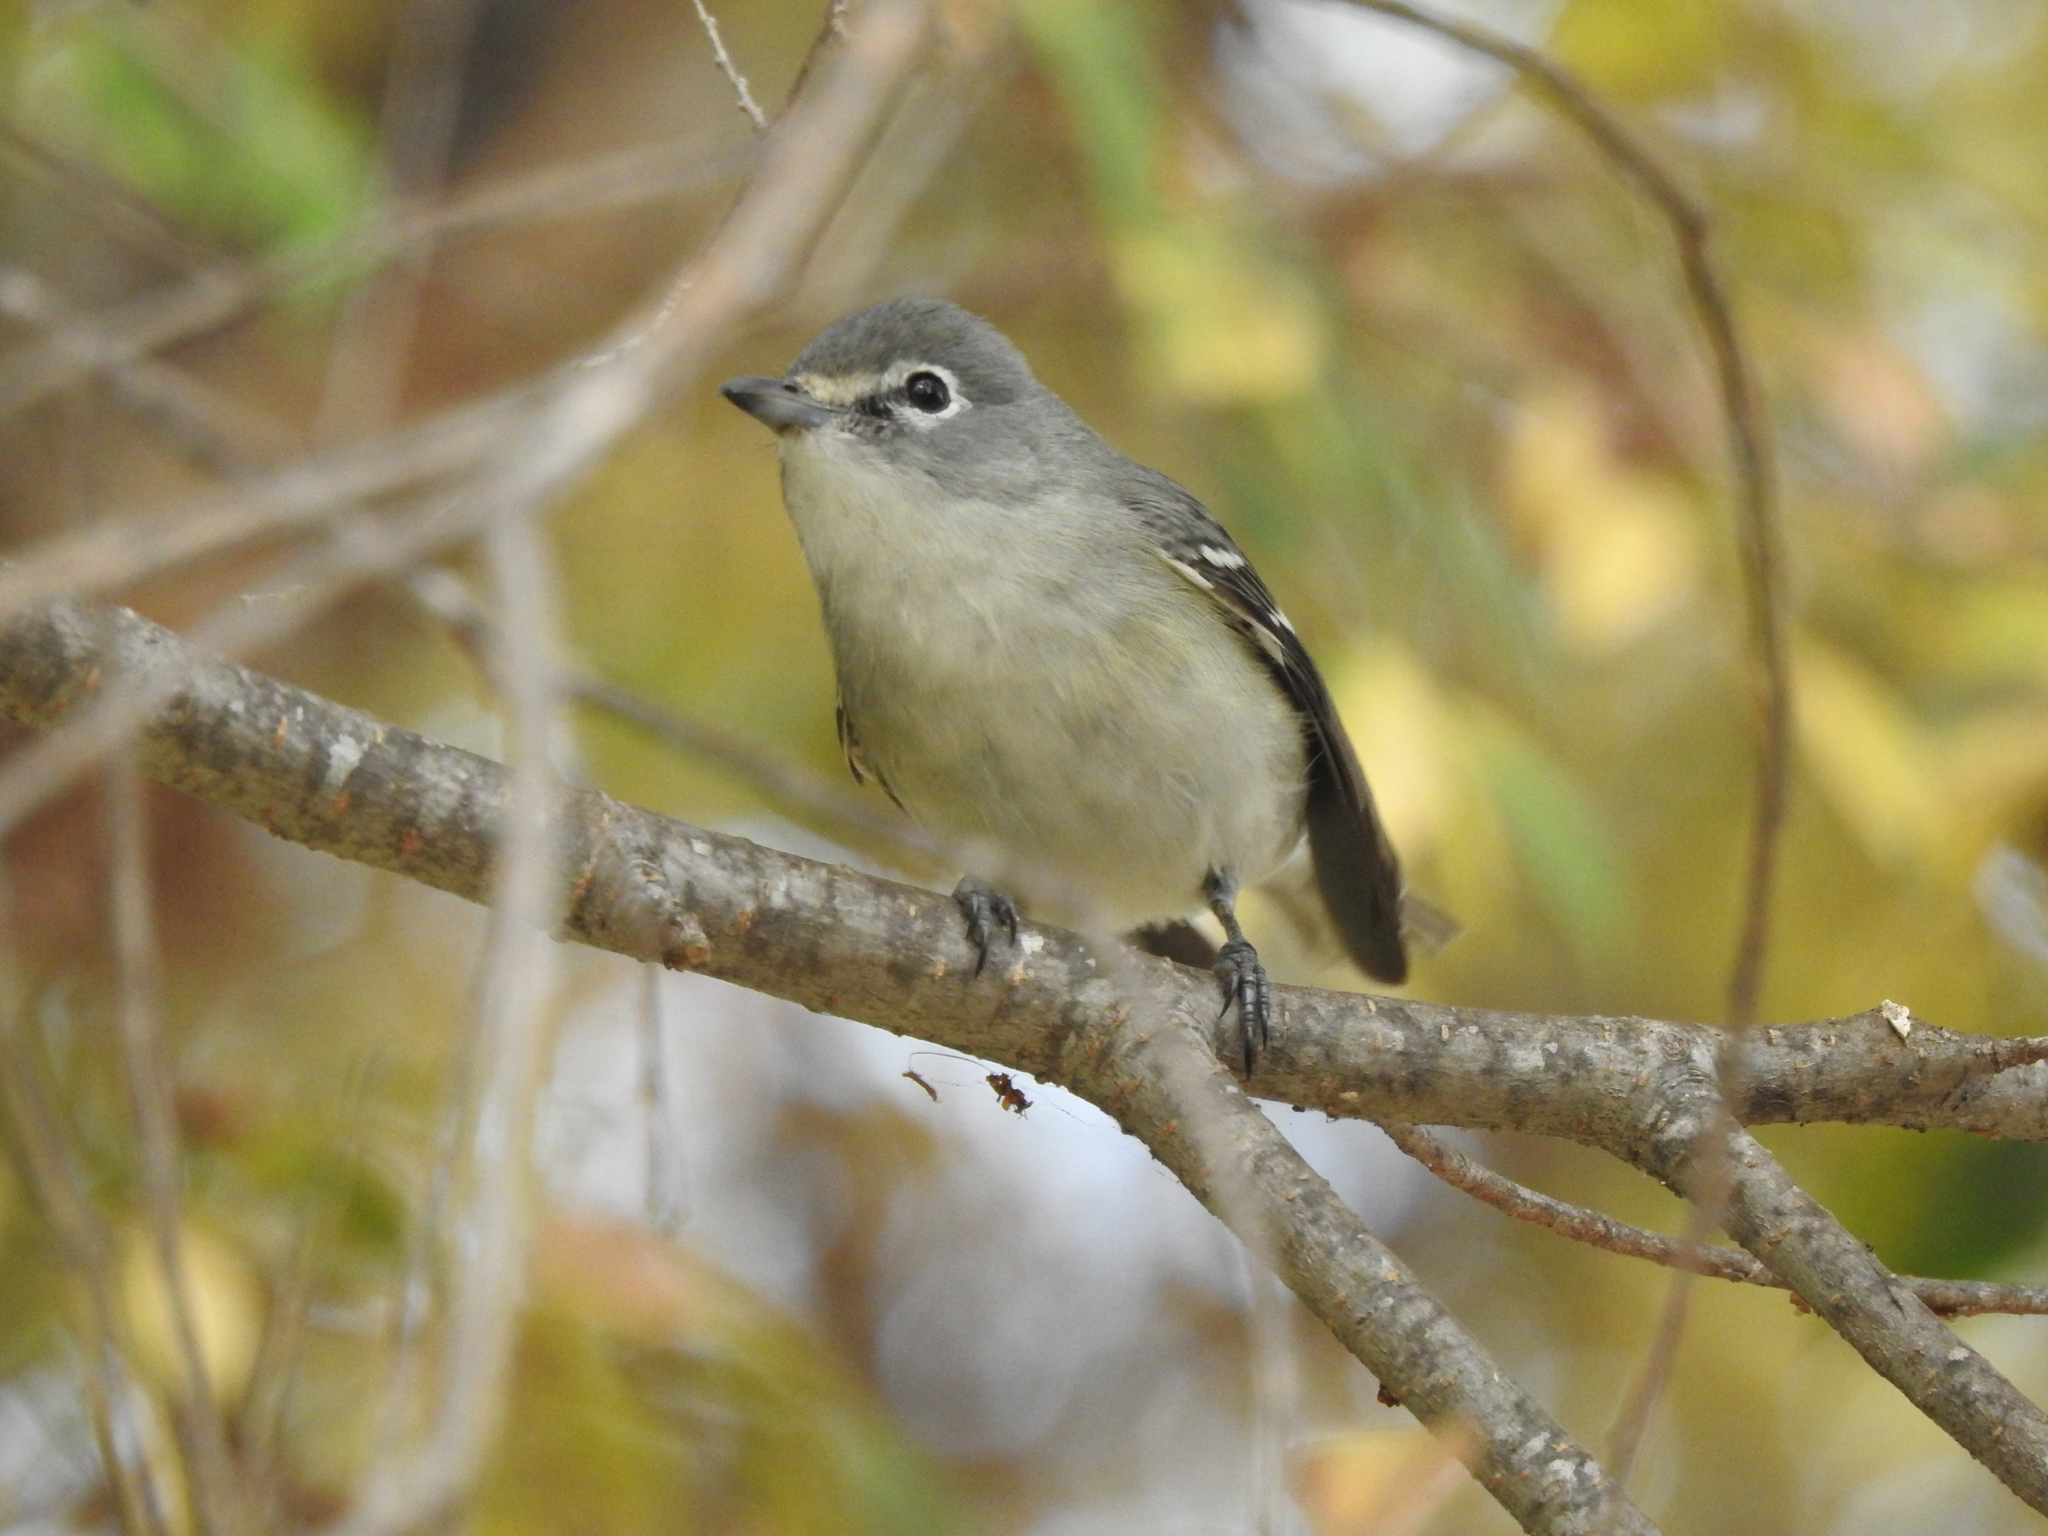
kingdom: Animalia
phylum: Chordata
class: Aves
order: Passeriformes
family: Vireonidae
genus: Vireo
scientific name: Vireo plumbeus
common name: Plumbeous vireo
